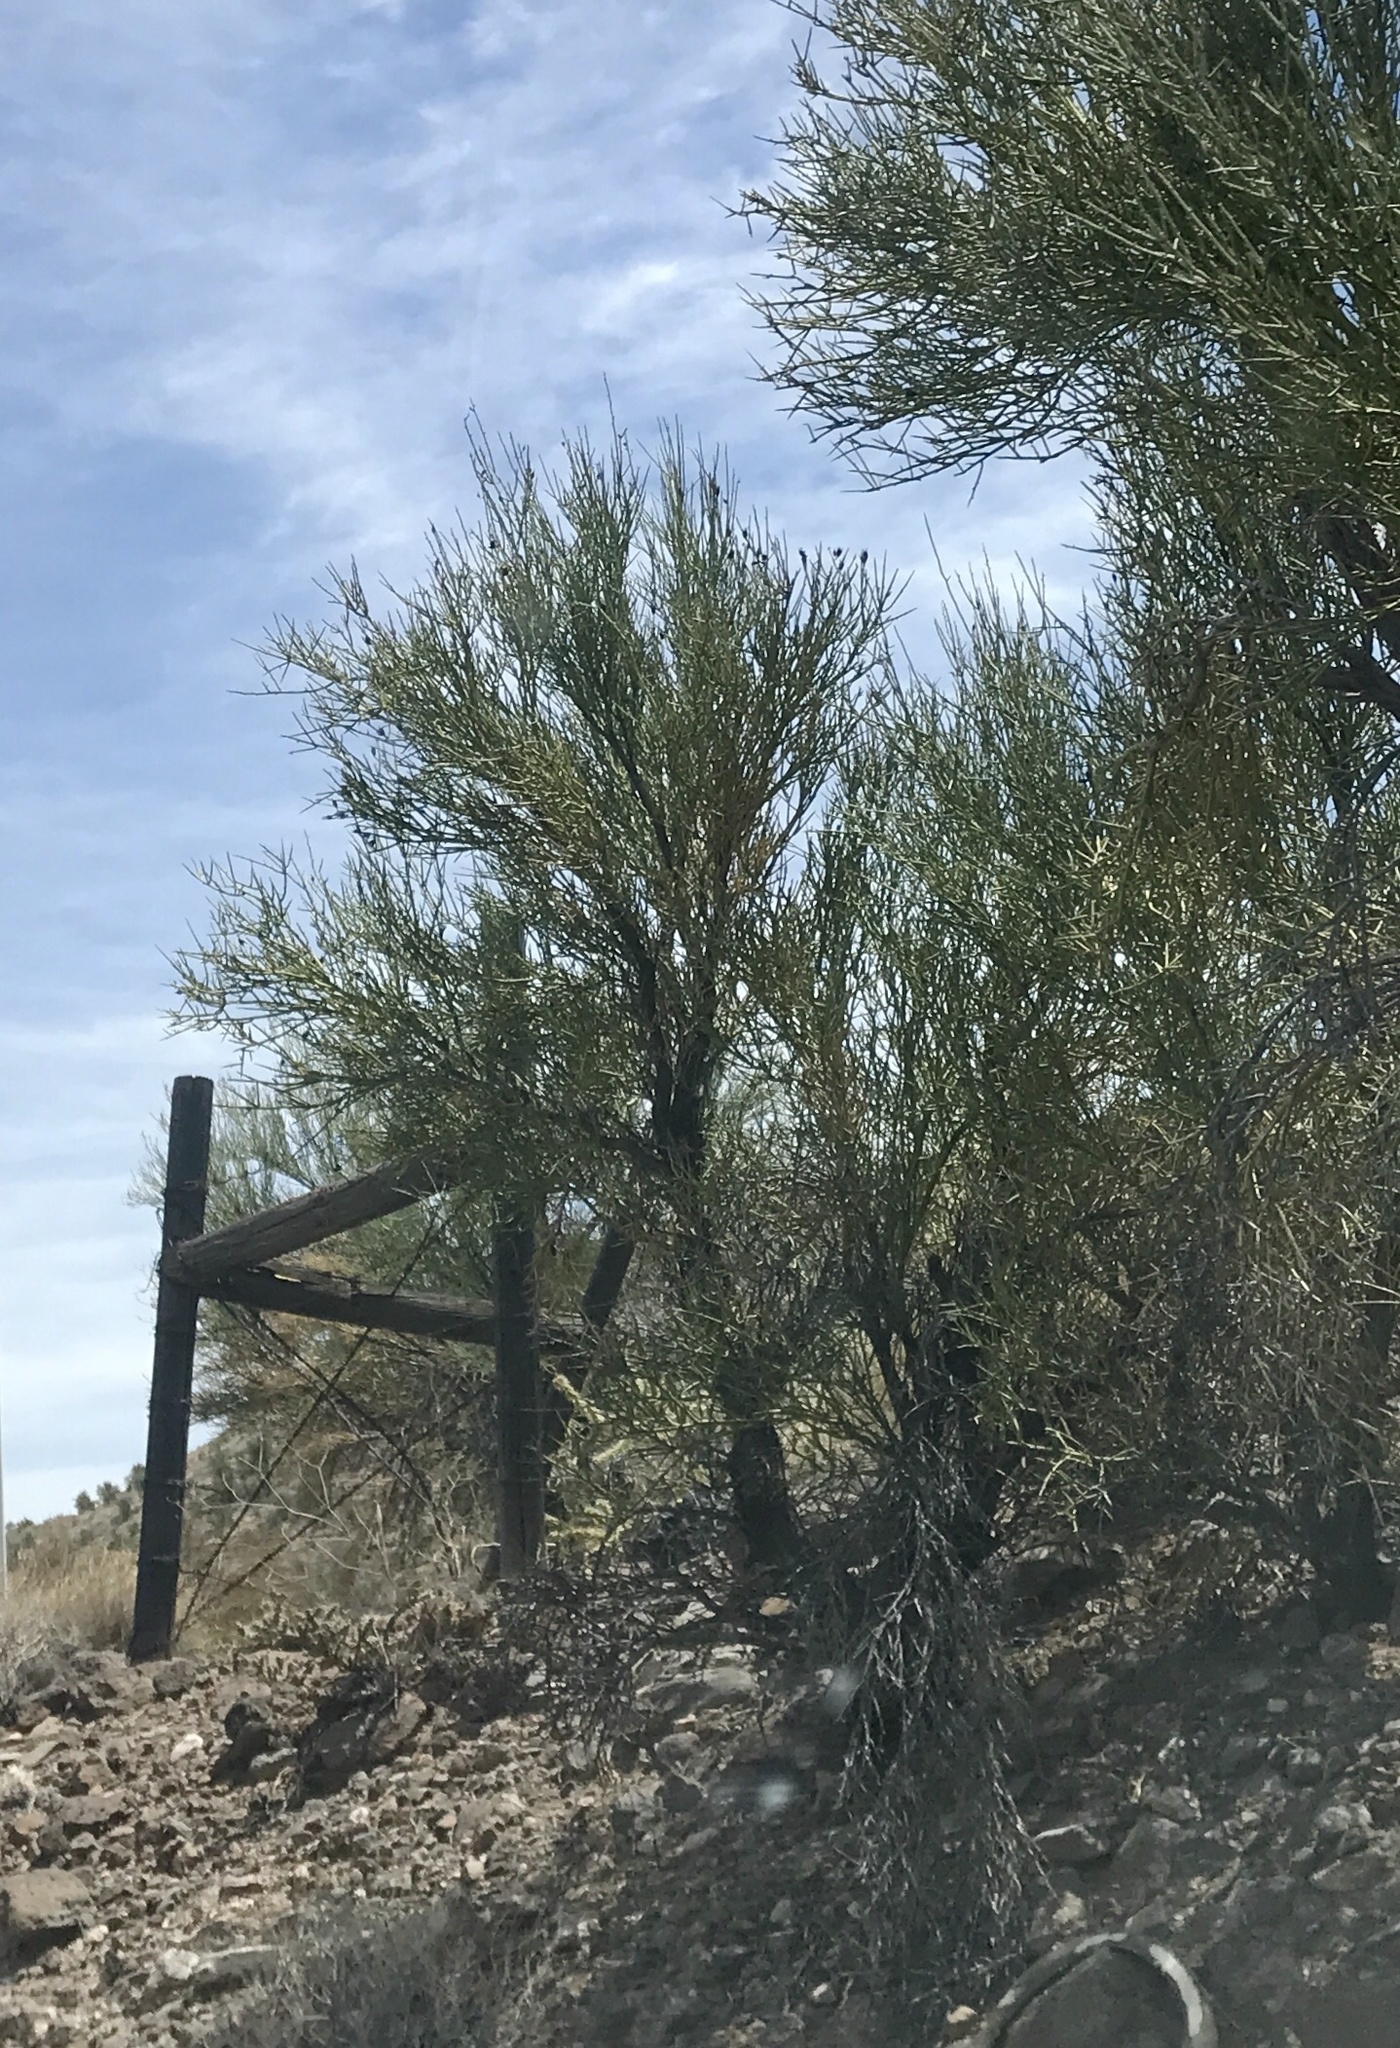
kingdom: Plantae
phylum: Tracheophyta
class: Magnoliopsida
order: Celastrales
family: Celastraceae
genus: Canotia
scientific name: Canotia holacantha
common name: Crucifixion thorns
